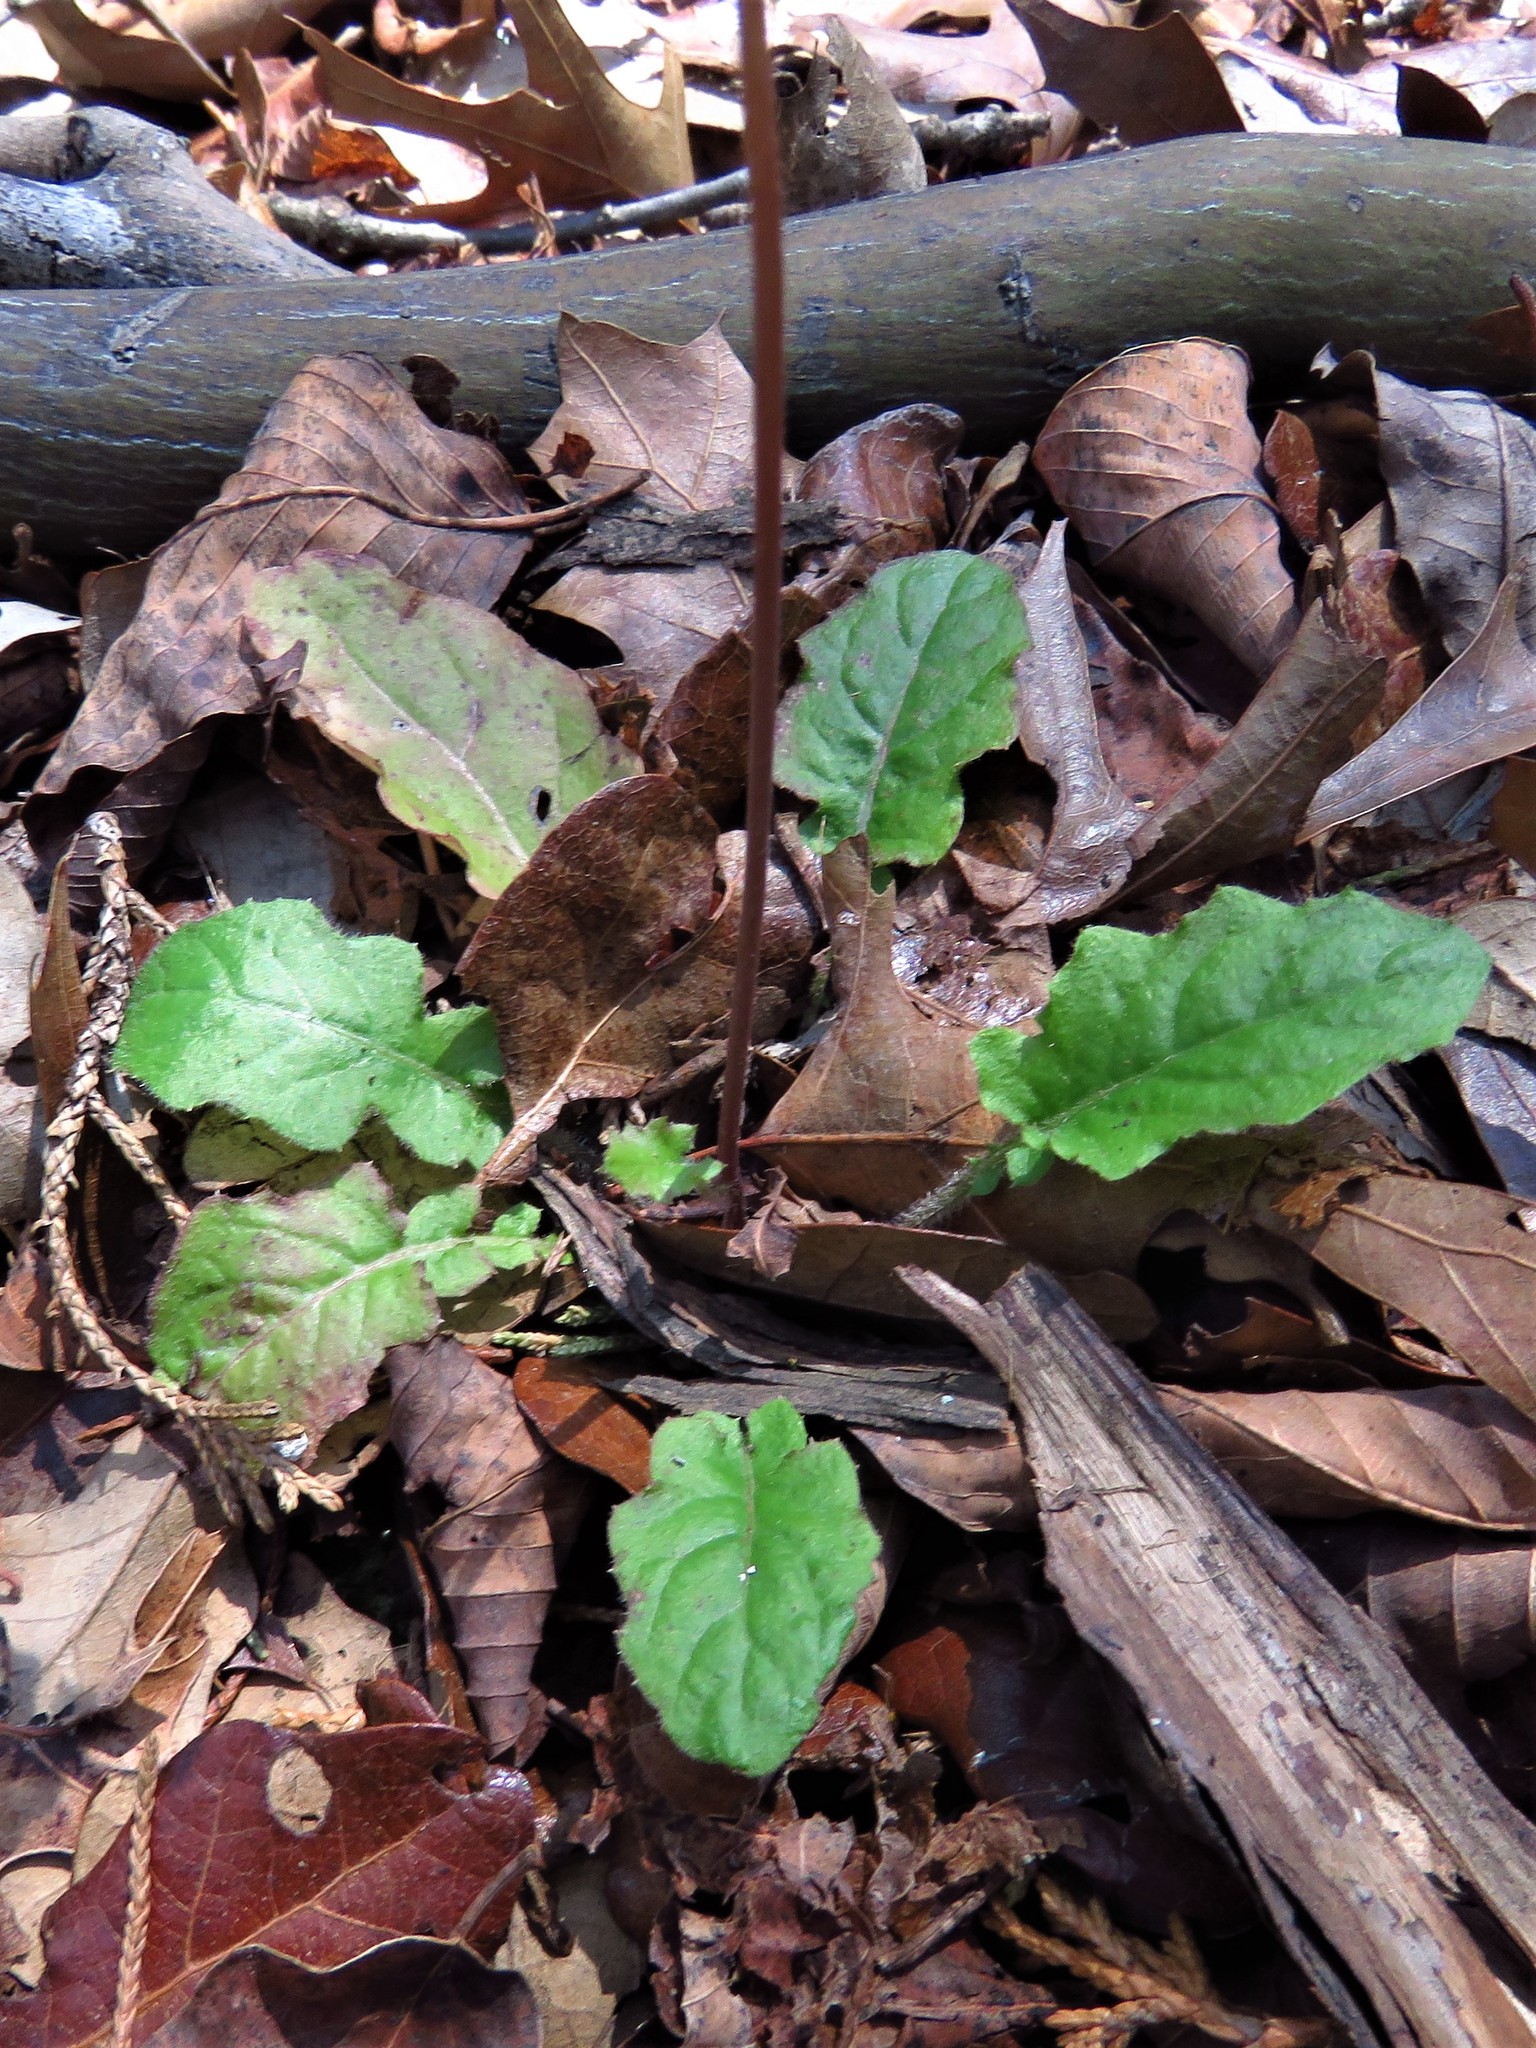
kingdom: Plantae
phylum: Tracheophyta
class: Magnoliopsida
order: Asterales
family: Asteraceae
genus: Youngia
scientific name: Youngia japonica
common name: Oriental false hawksbeard
